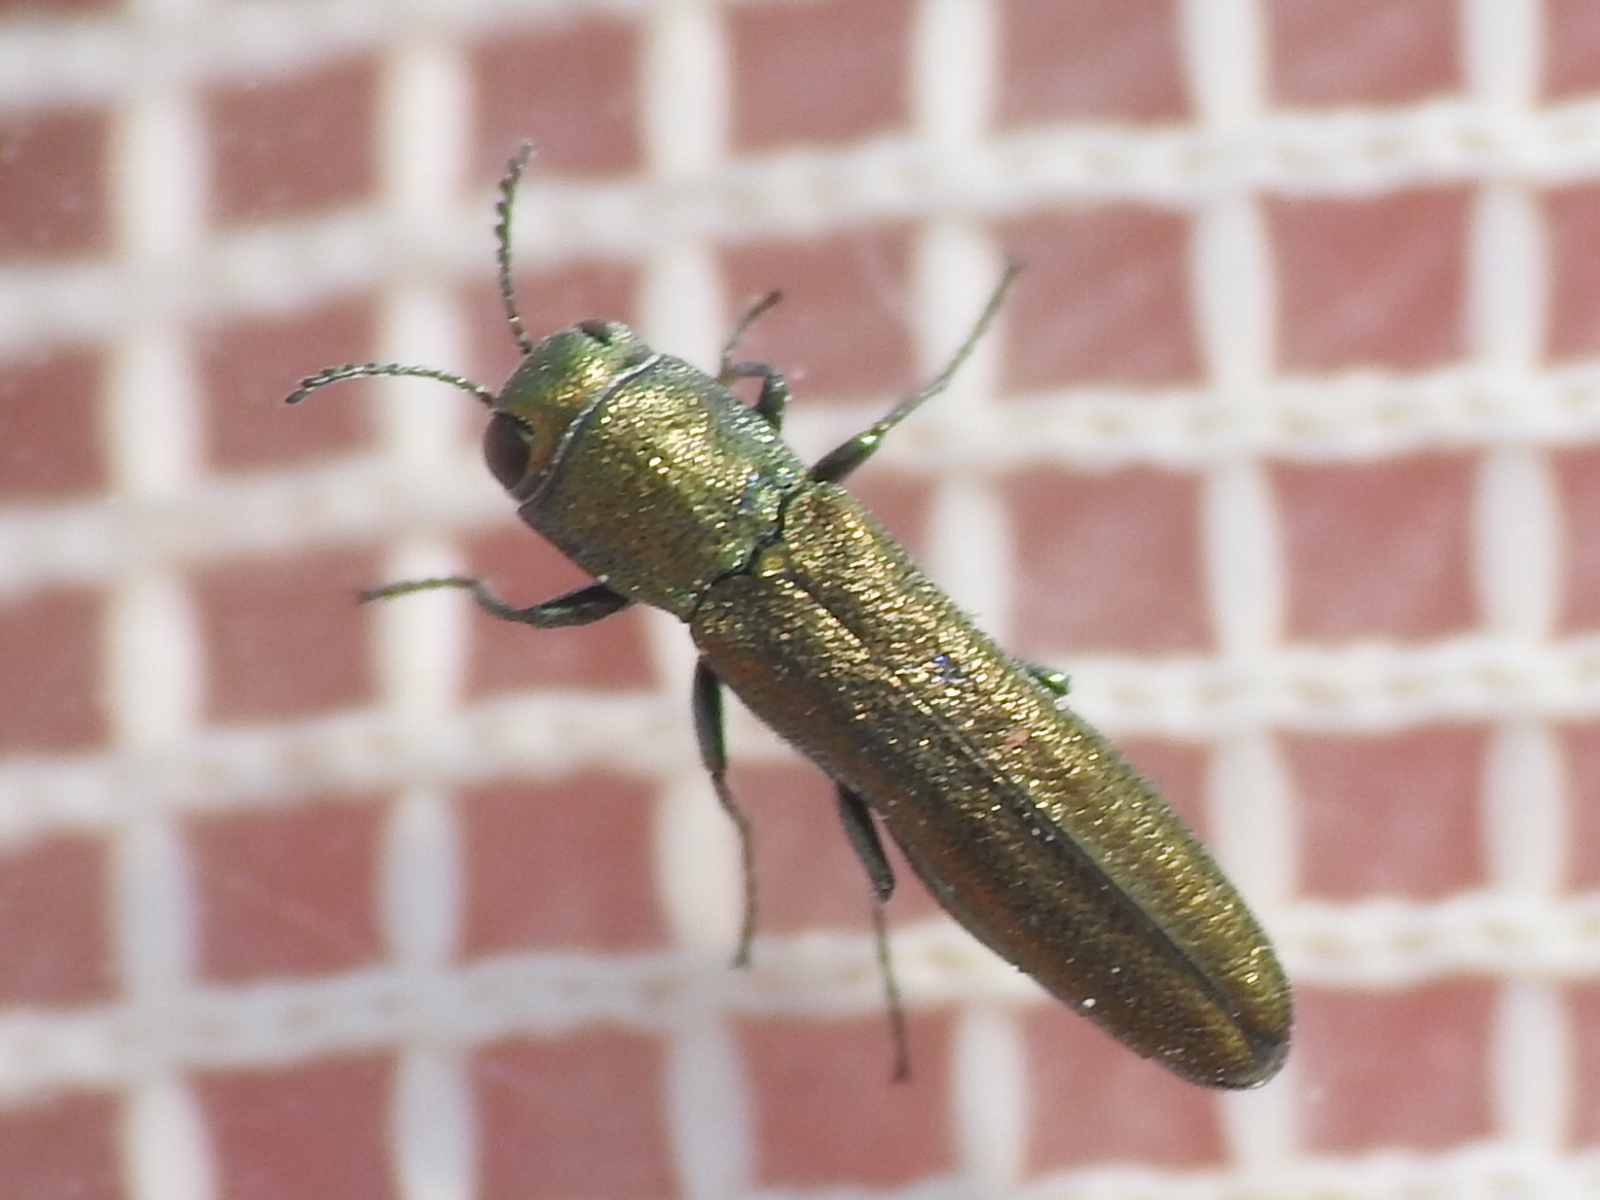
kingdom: Animalia
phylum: Arthropoda
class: Insecta
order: Coleoptera
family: Buprestidae
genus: Agrilus
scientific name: Agrilus lacustris
